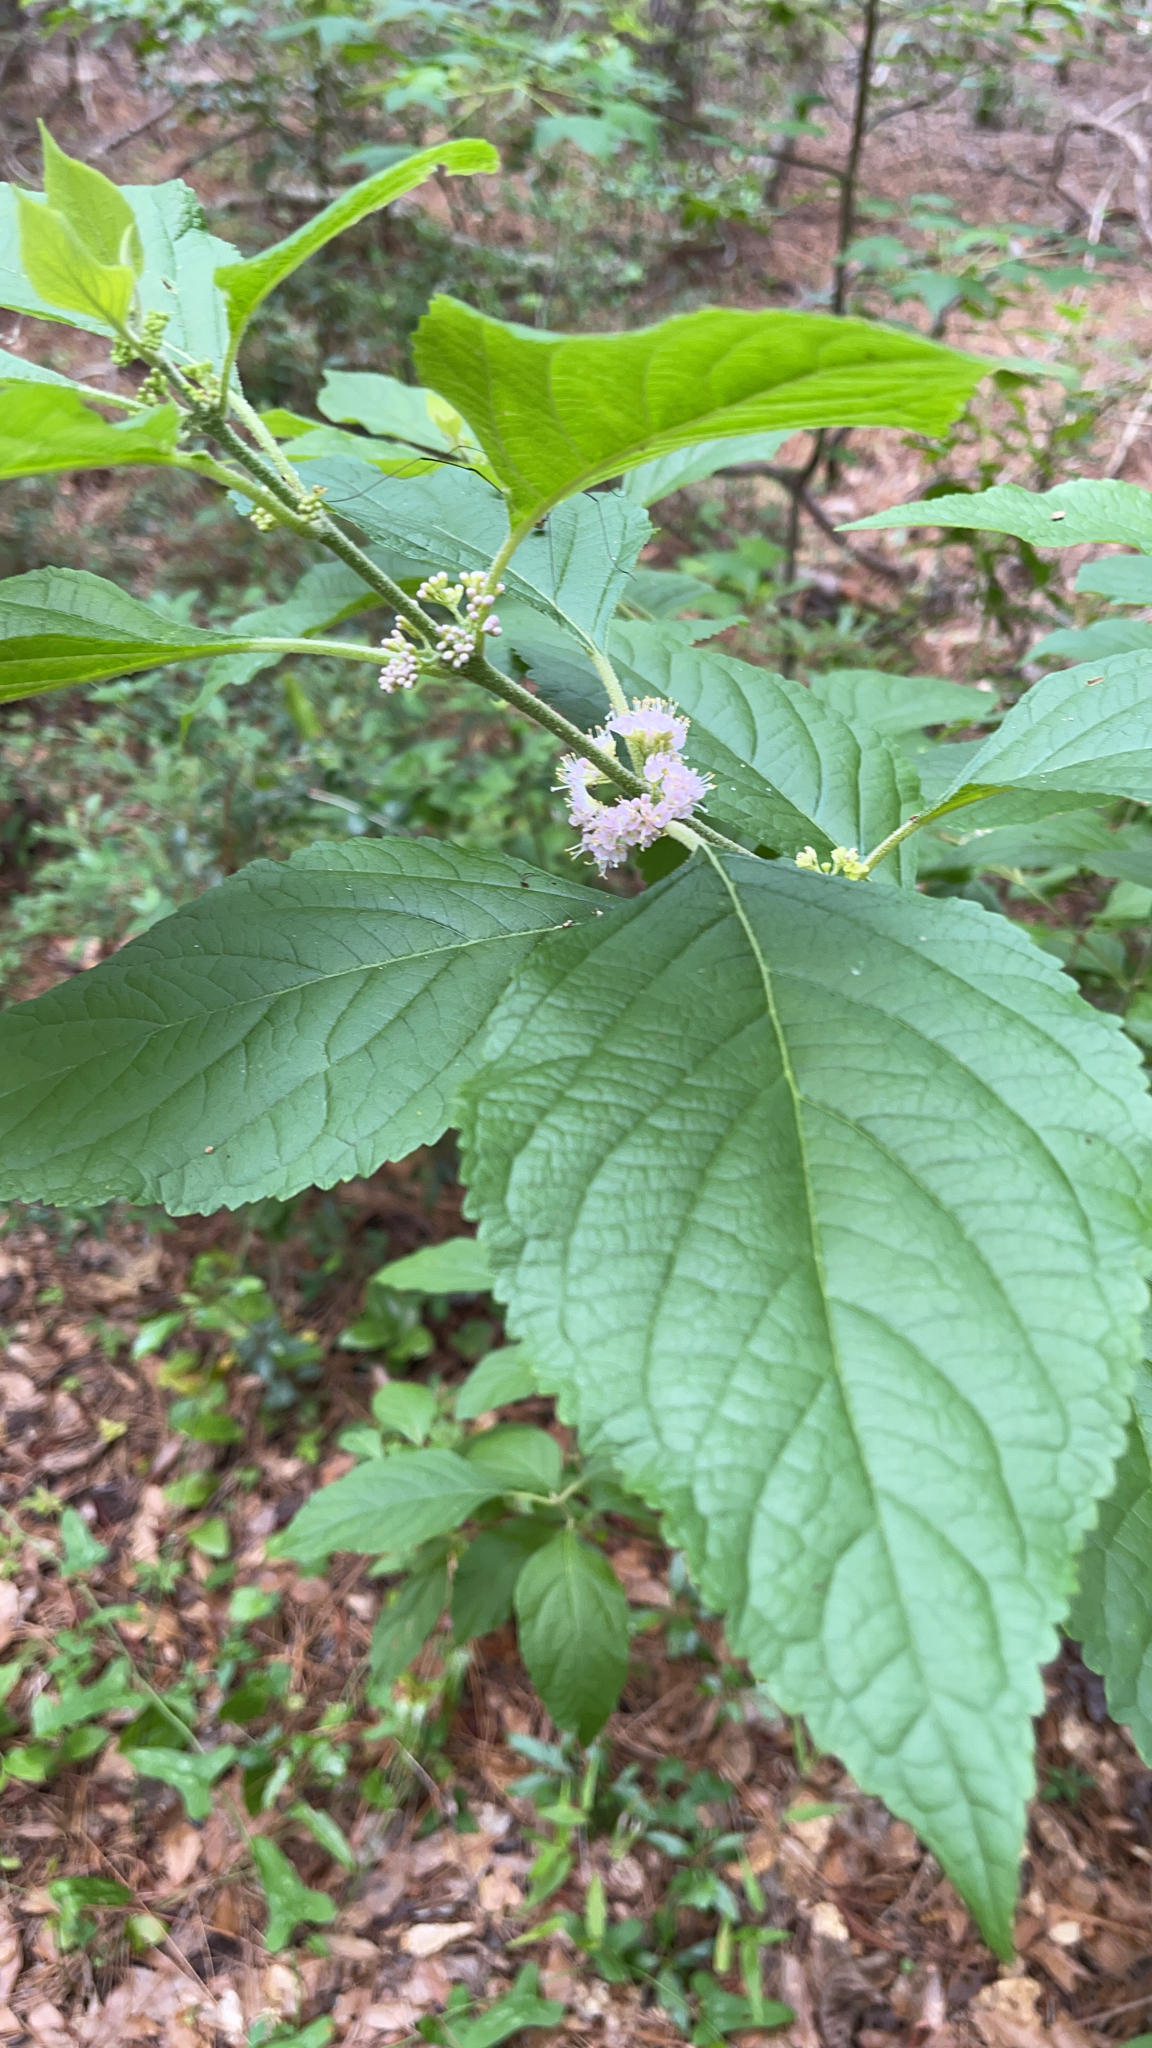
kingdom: Plantae
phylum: Tracheophyta
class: Magnoliopsida
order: Lamiales
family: Lamiaceae
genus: Callicarpa
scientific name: Callicarpa americana
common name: American beautyberry
